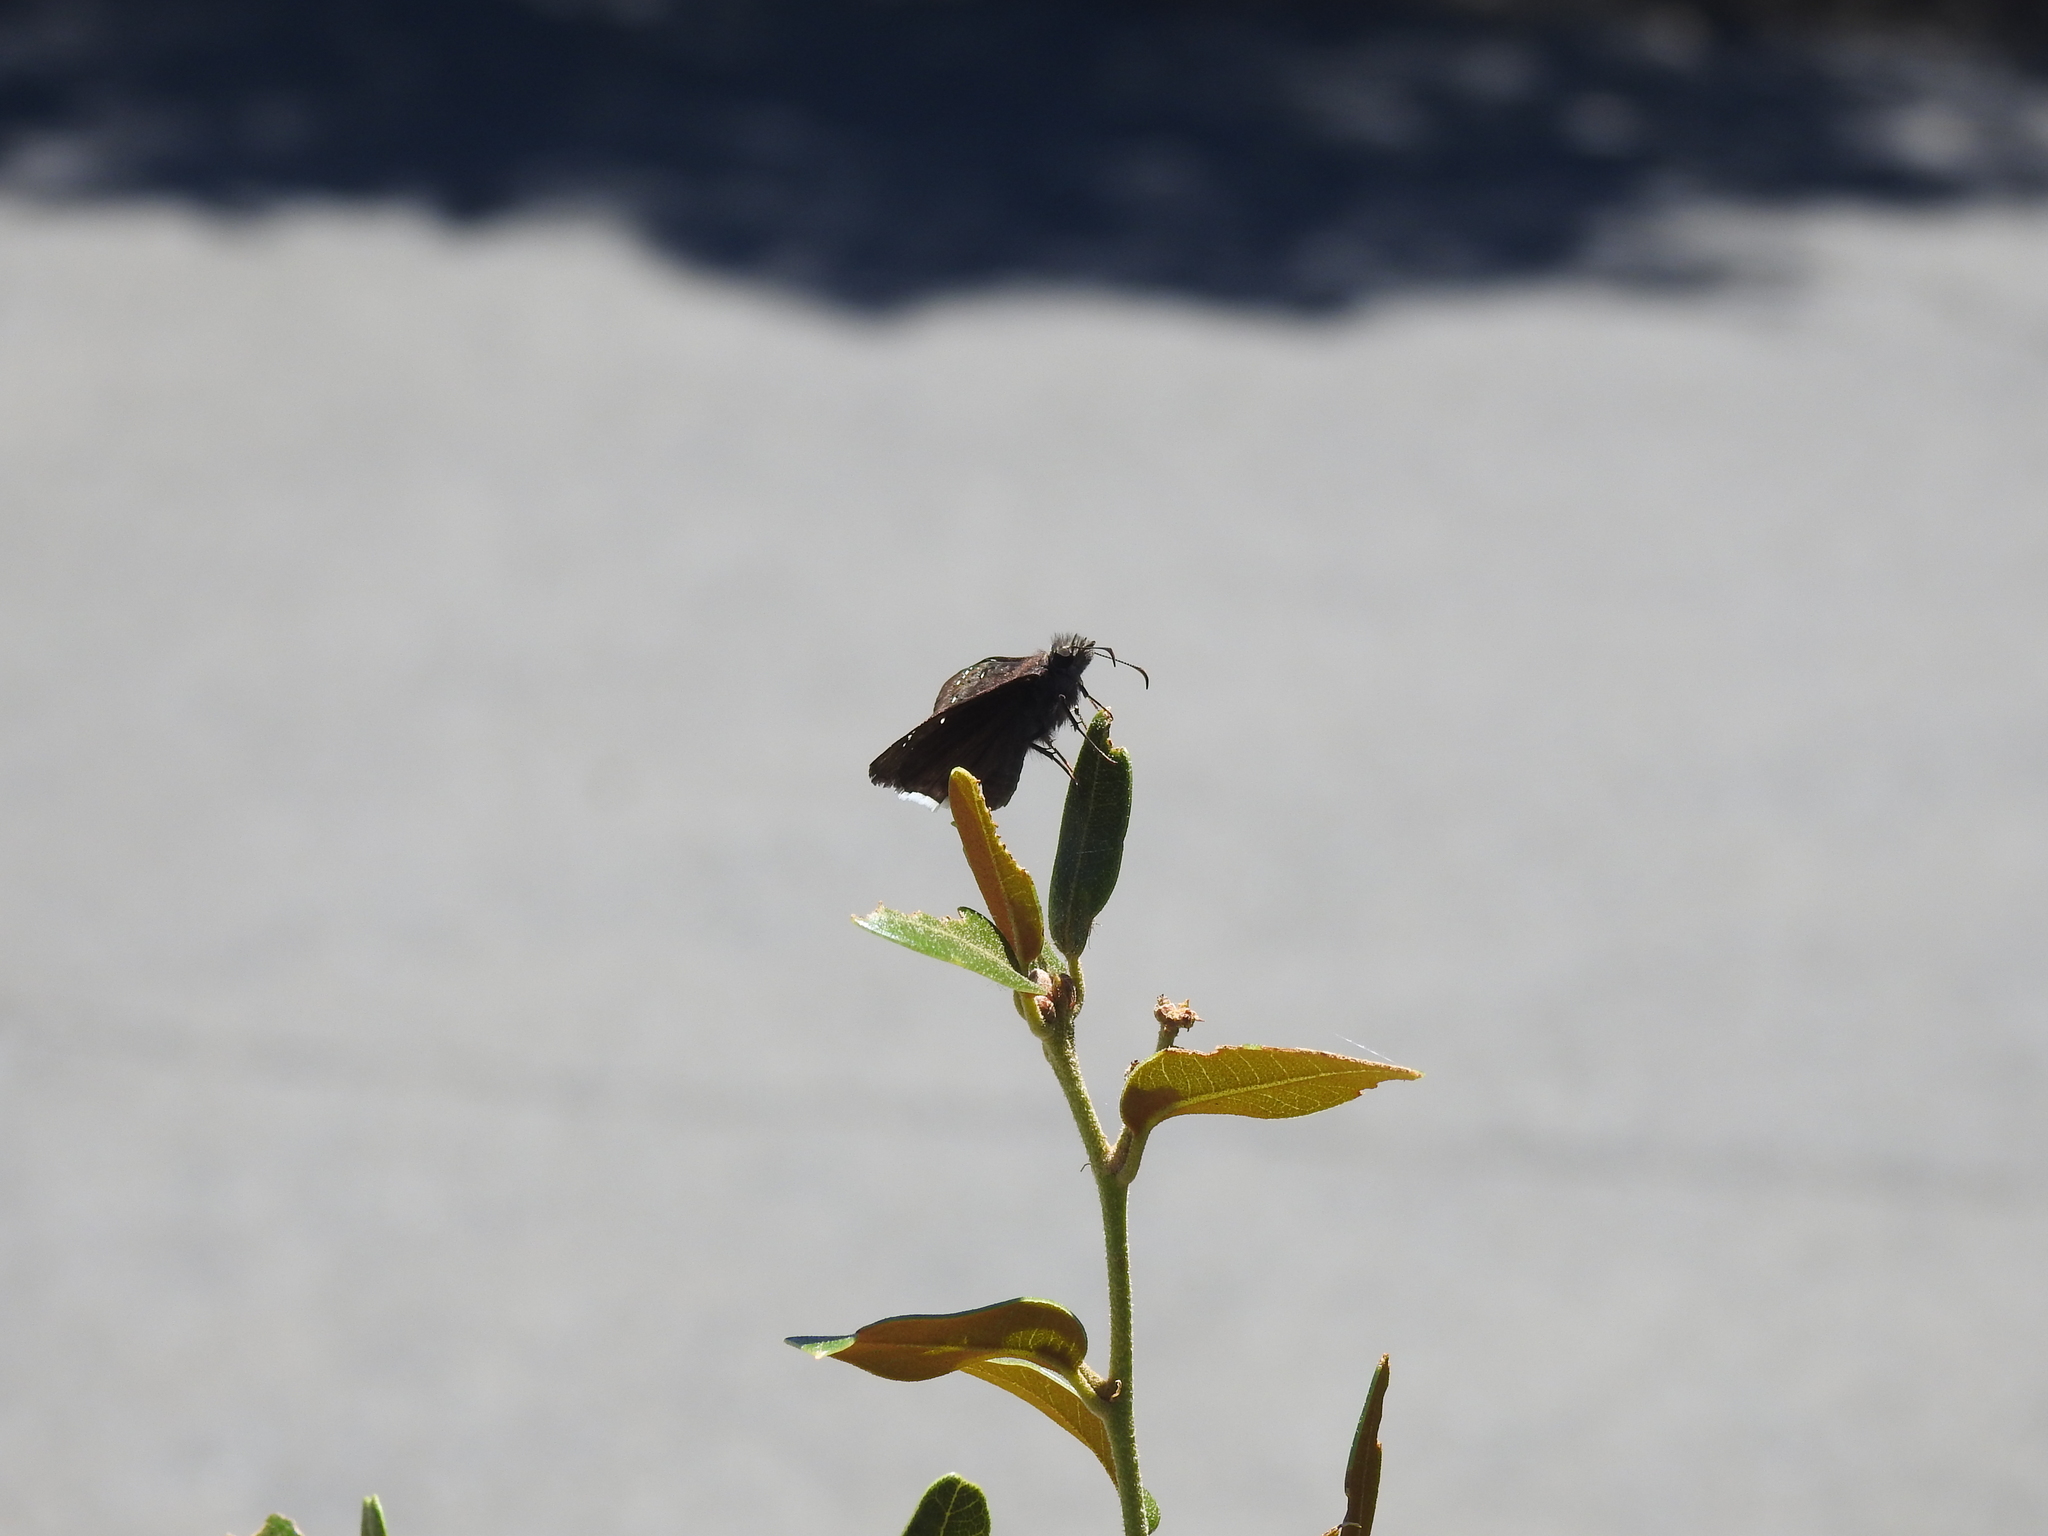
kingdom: Animalia
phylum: Arthropoda
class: Insecta
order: Lepidoptera
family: Hesperiidae
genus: Erynnis
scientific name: Erynnis tristis
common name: Mournful duskywing
